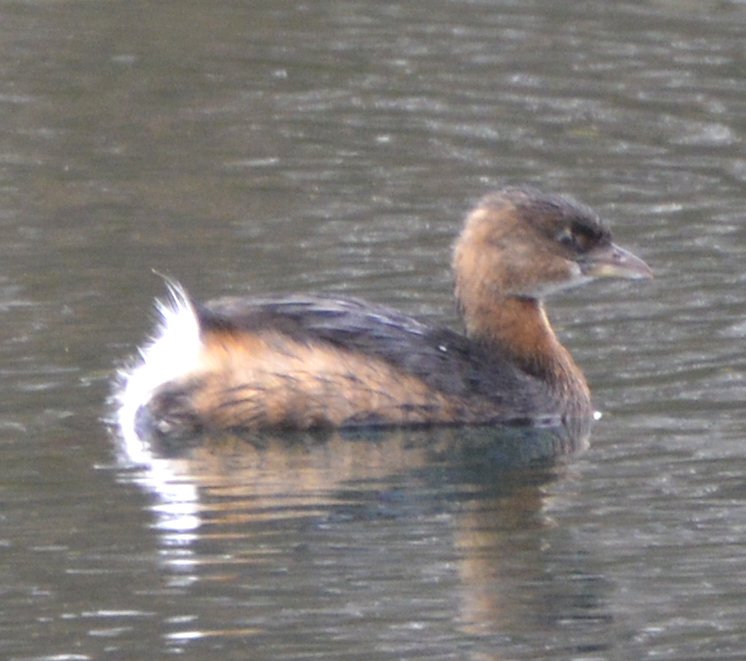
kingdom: Animalia
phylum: Chordata
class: Aves
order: Podicipediformes
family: Podicipedidae
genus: Podilymbus
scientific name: Podilymbus podiceps
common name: Pied-billed grebe
